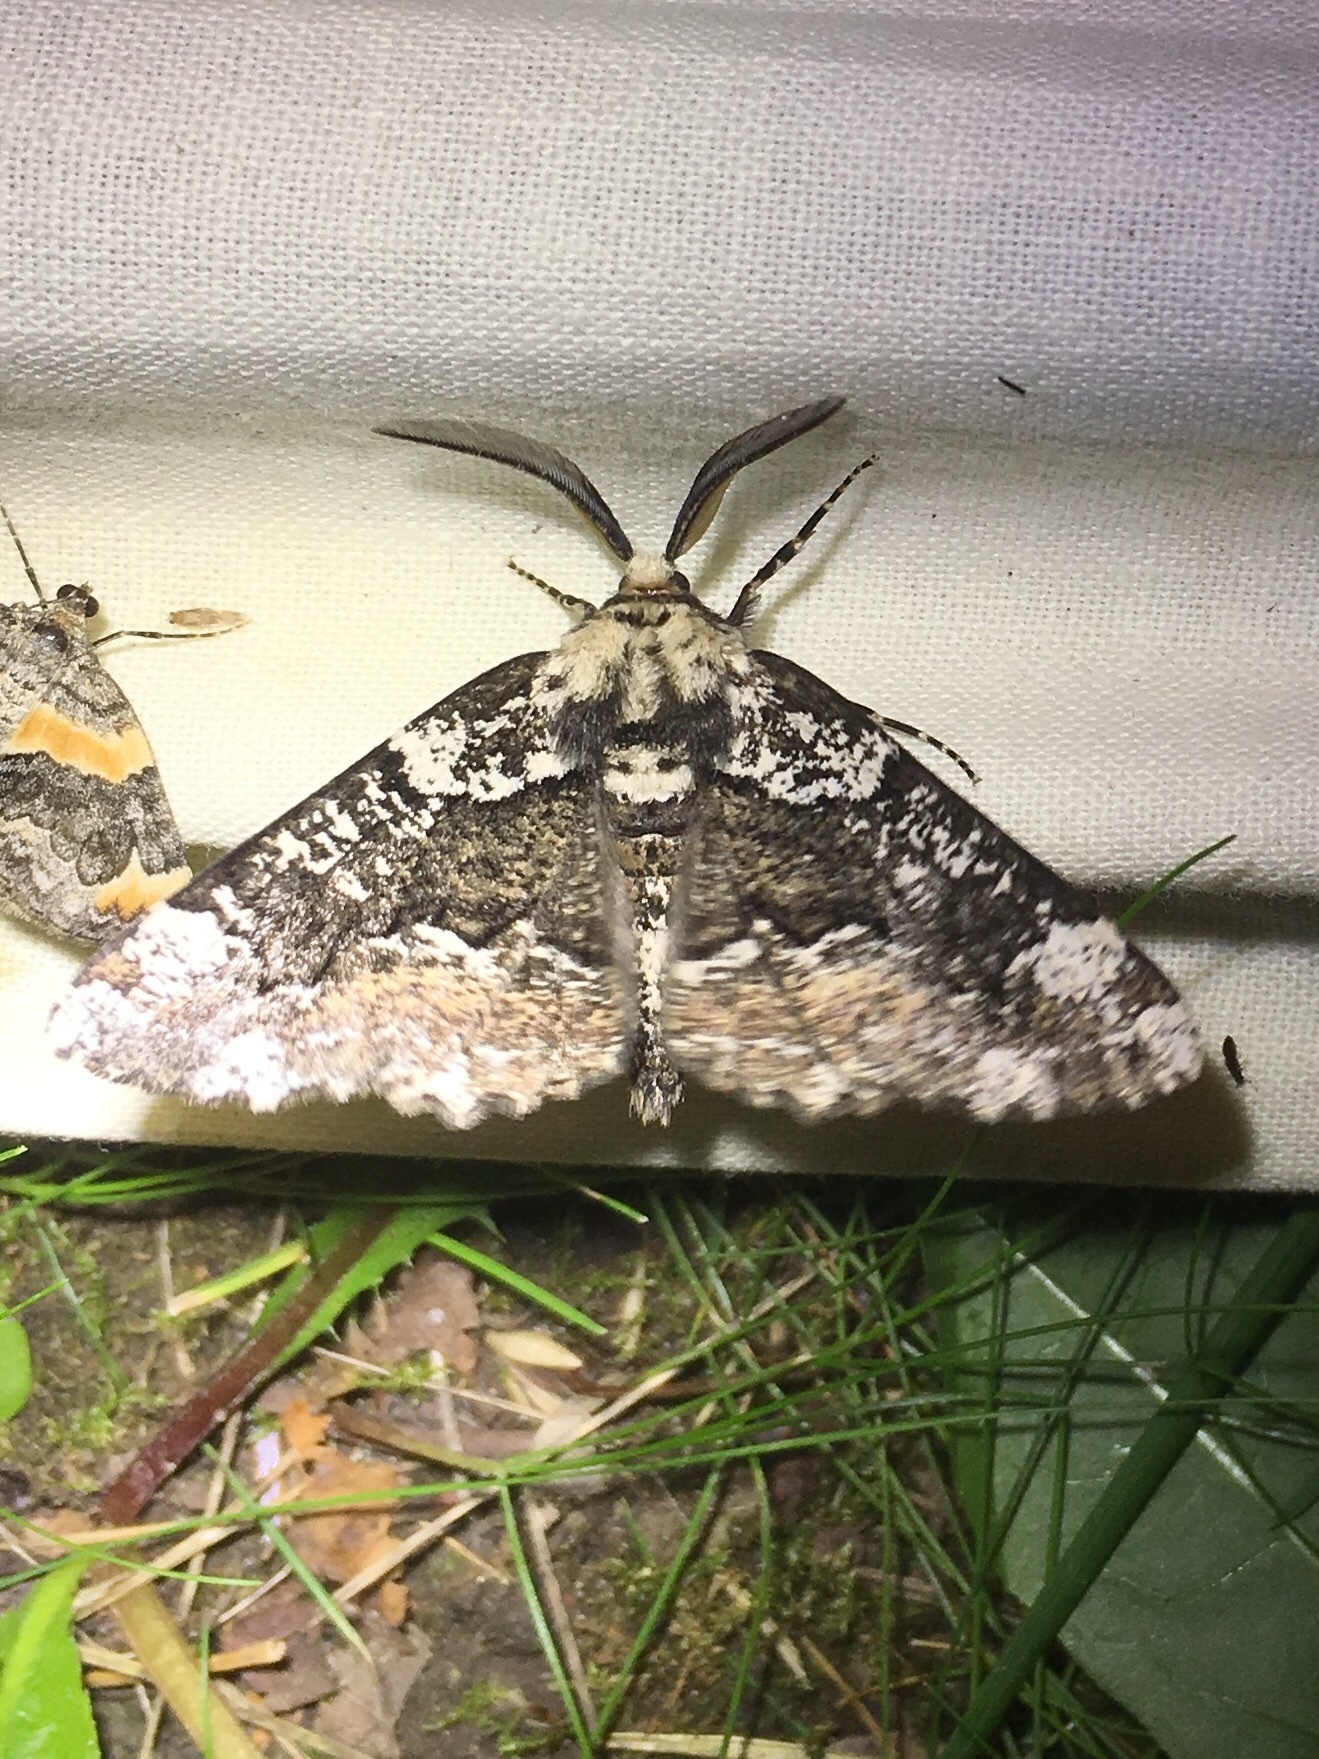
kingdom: Animalia
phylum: Arthropoda
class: Insecta
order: Lepidoptera
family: Geometridae
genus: Phaeoura
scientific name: Phaeoura quernaria
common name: Oak beauty
